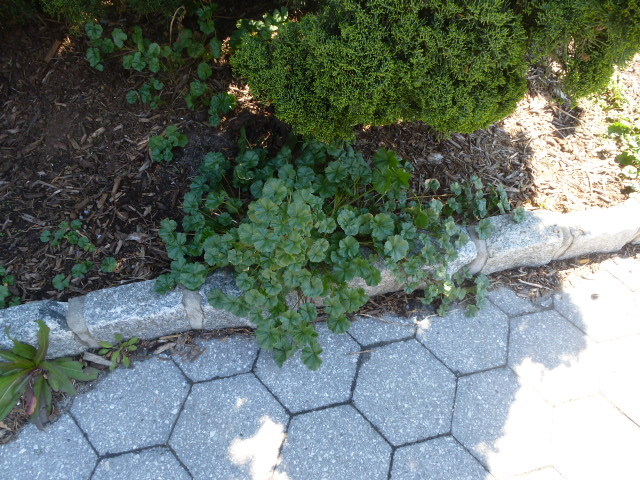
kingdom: Plantae
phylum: Tracheophyta
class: Magnoliopsida
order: Malvales
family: Malvaceae
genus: Malva
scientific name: Malva neglecta
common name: Common mallow
